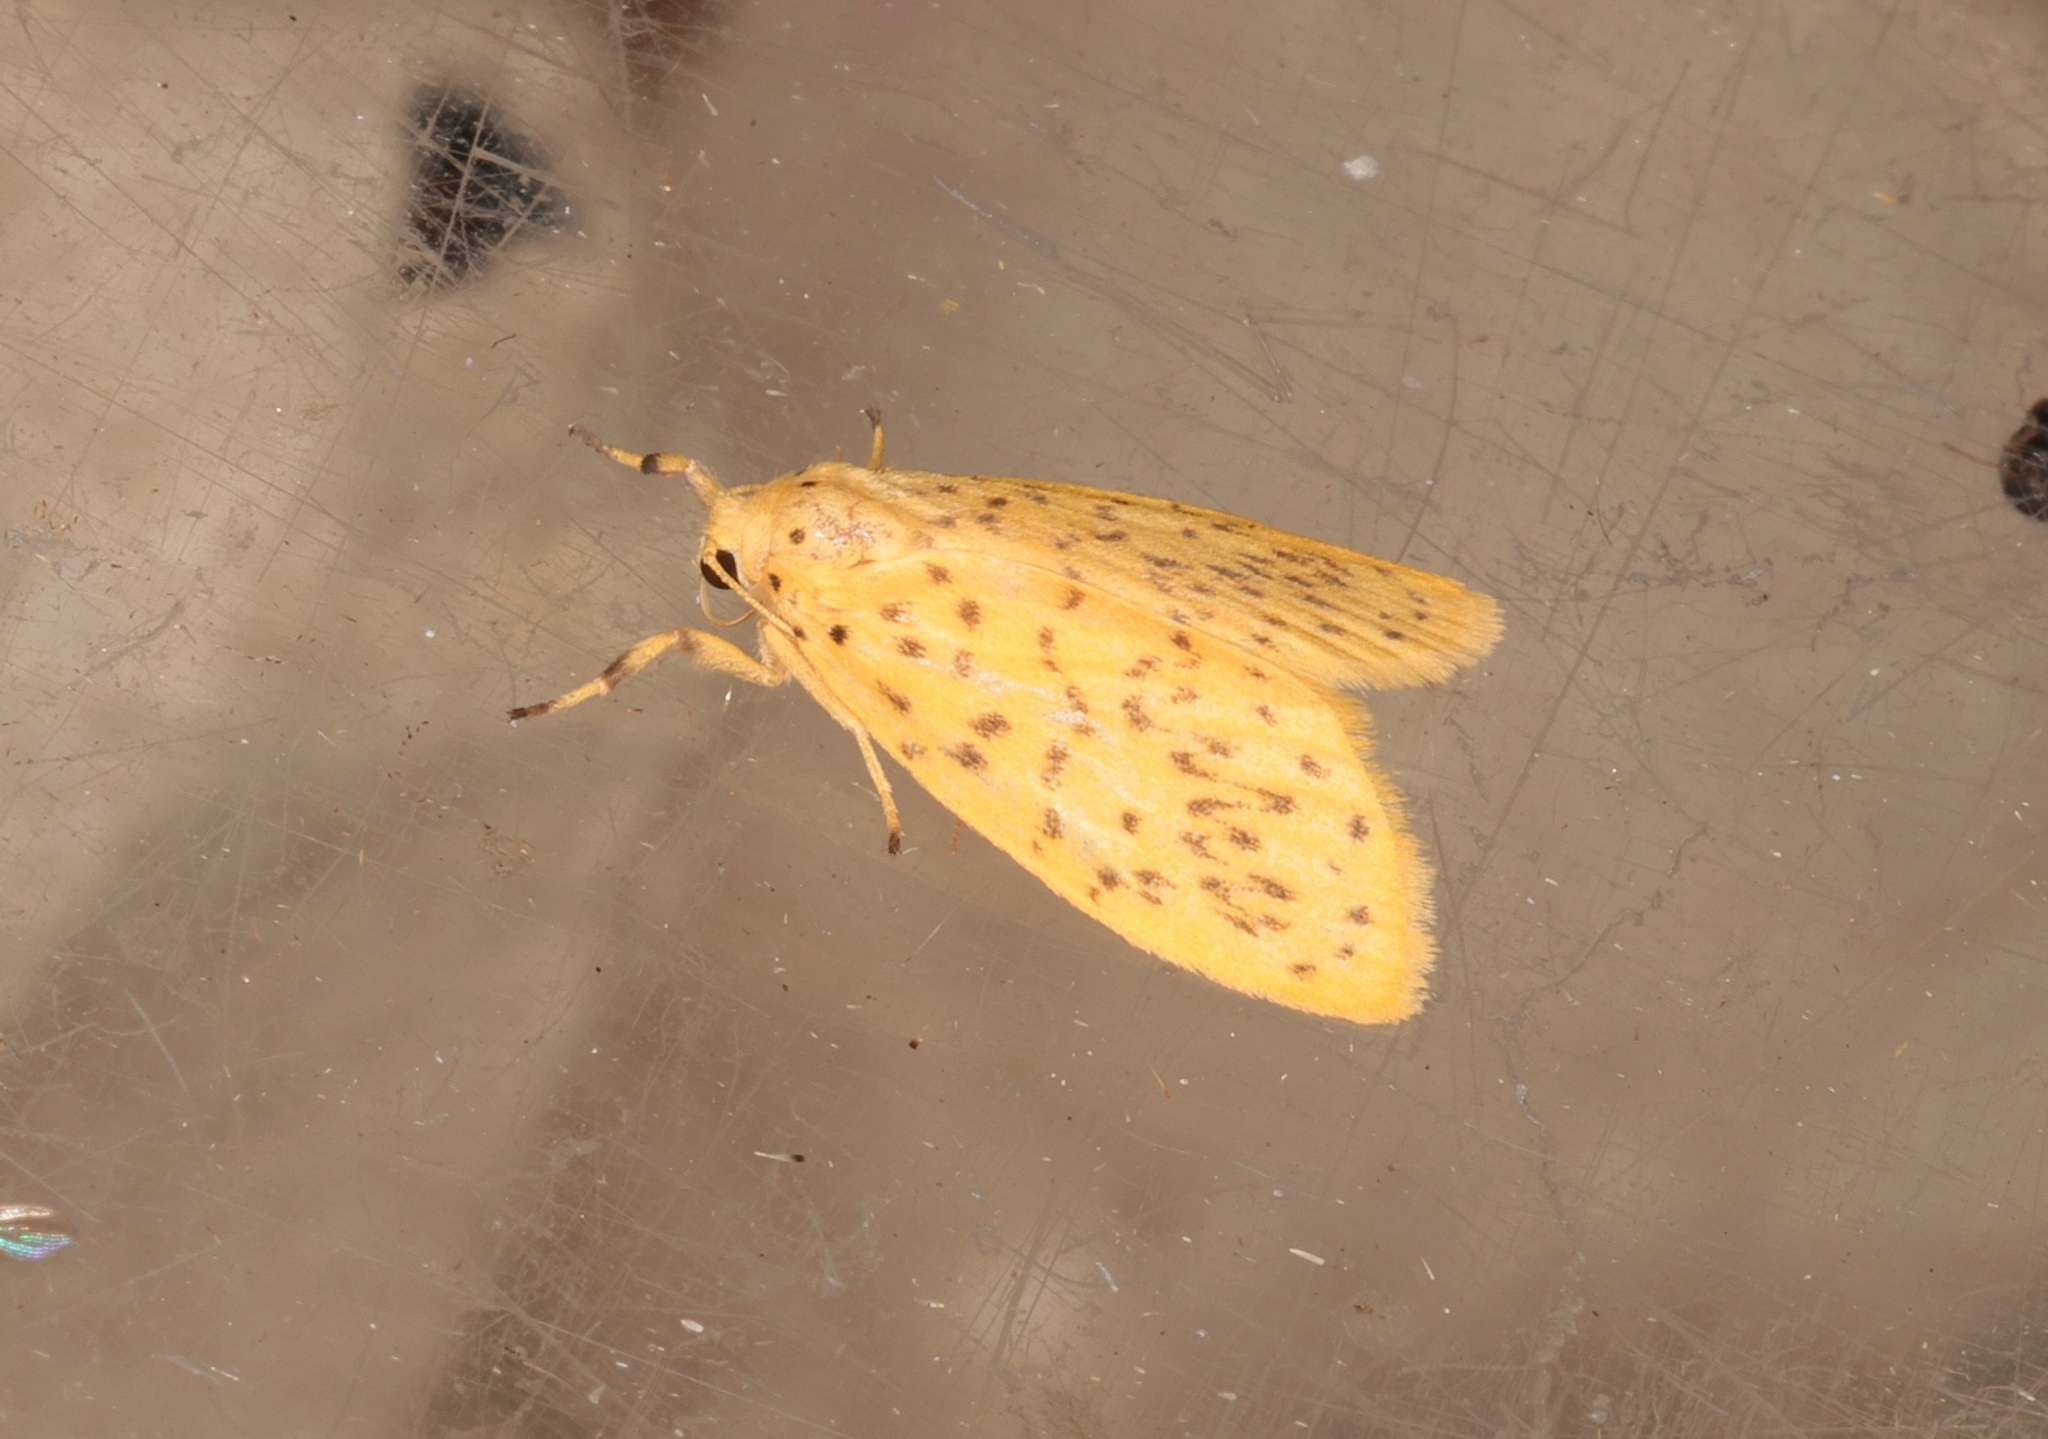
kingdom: Animalia
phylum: Arthropoda
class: Insecta
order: Lepidoptera
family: Erebidae
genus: Huangilene
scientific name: Huangilene
